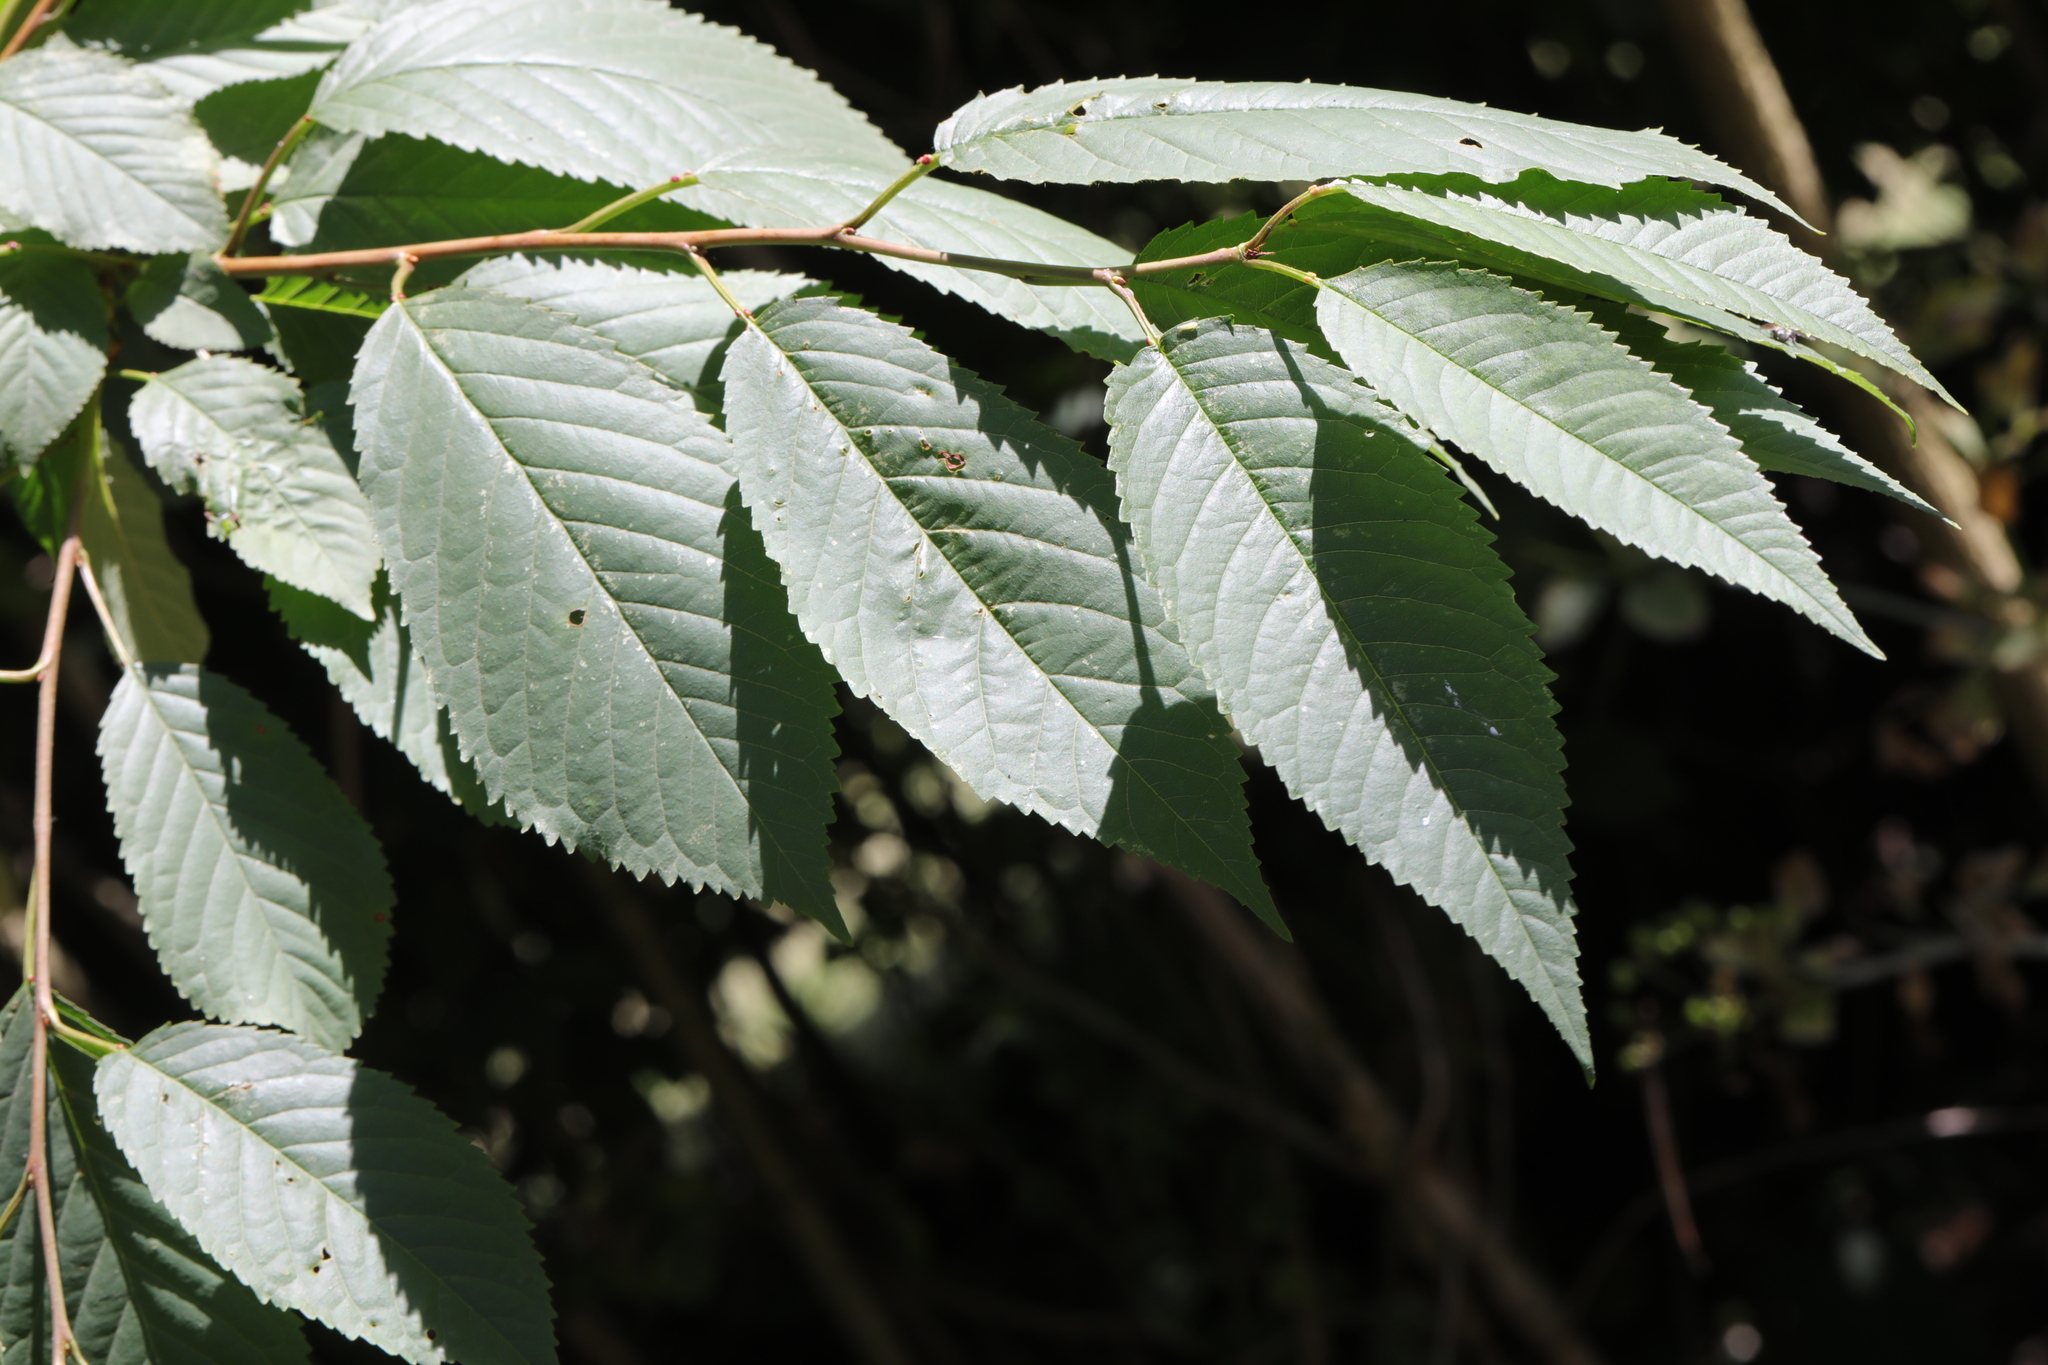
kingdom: Plantae
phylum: Tracheophyta
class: Magnoliopsida
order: Rosales
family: Rosaceae
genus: Prunus
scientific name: Prunus avium
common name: Sweet cherry
